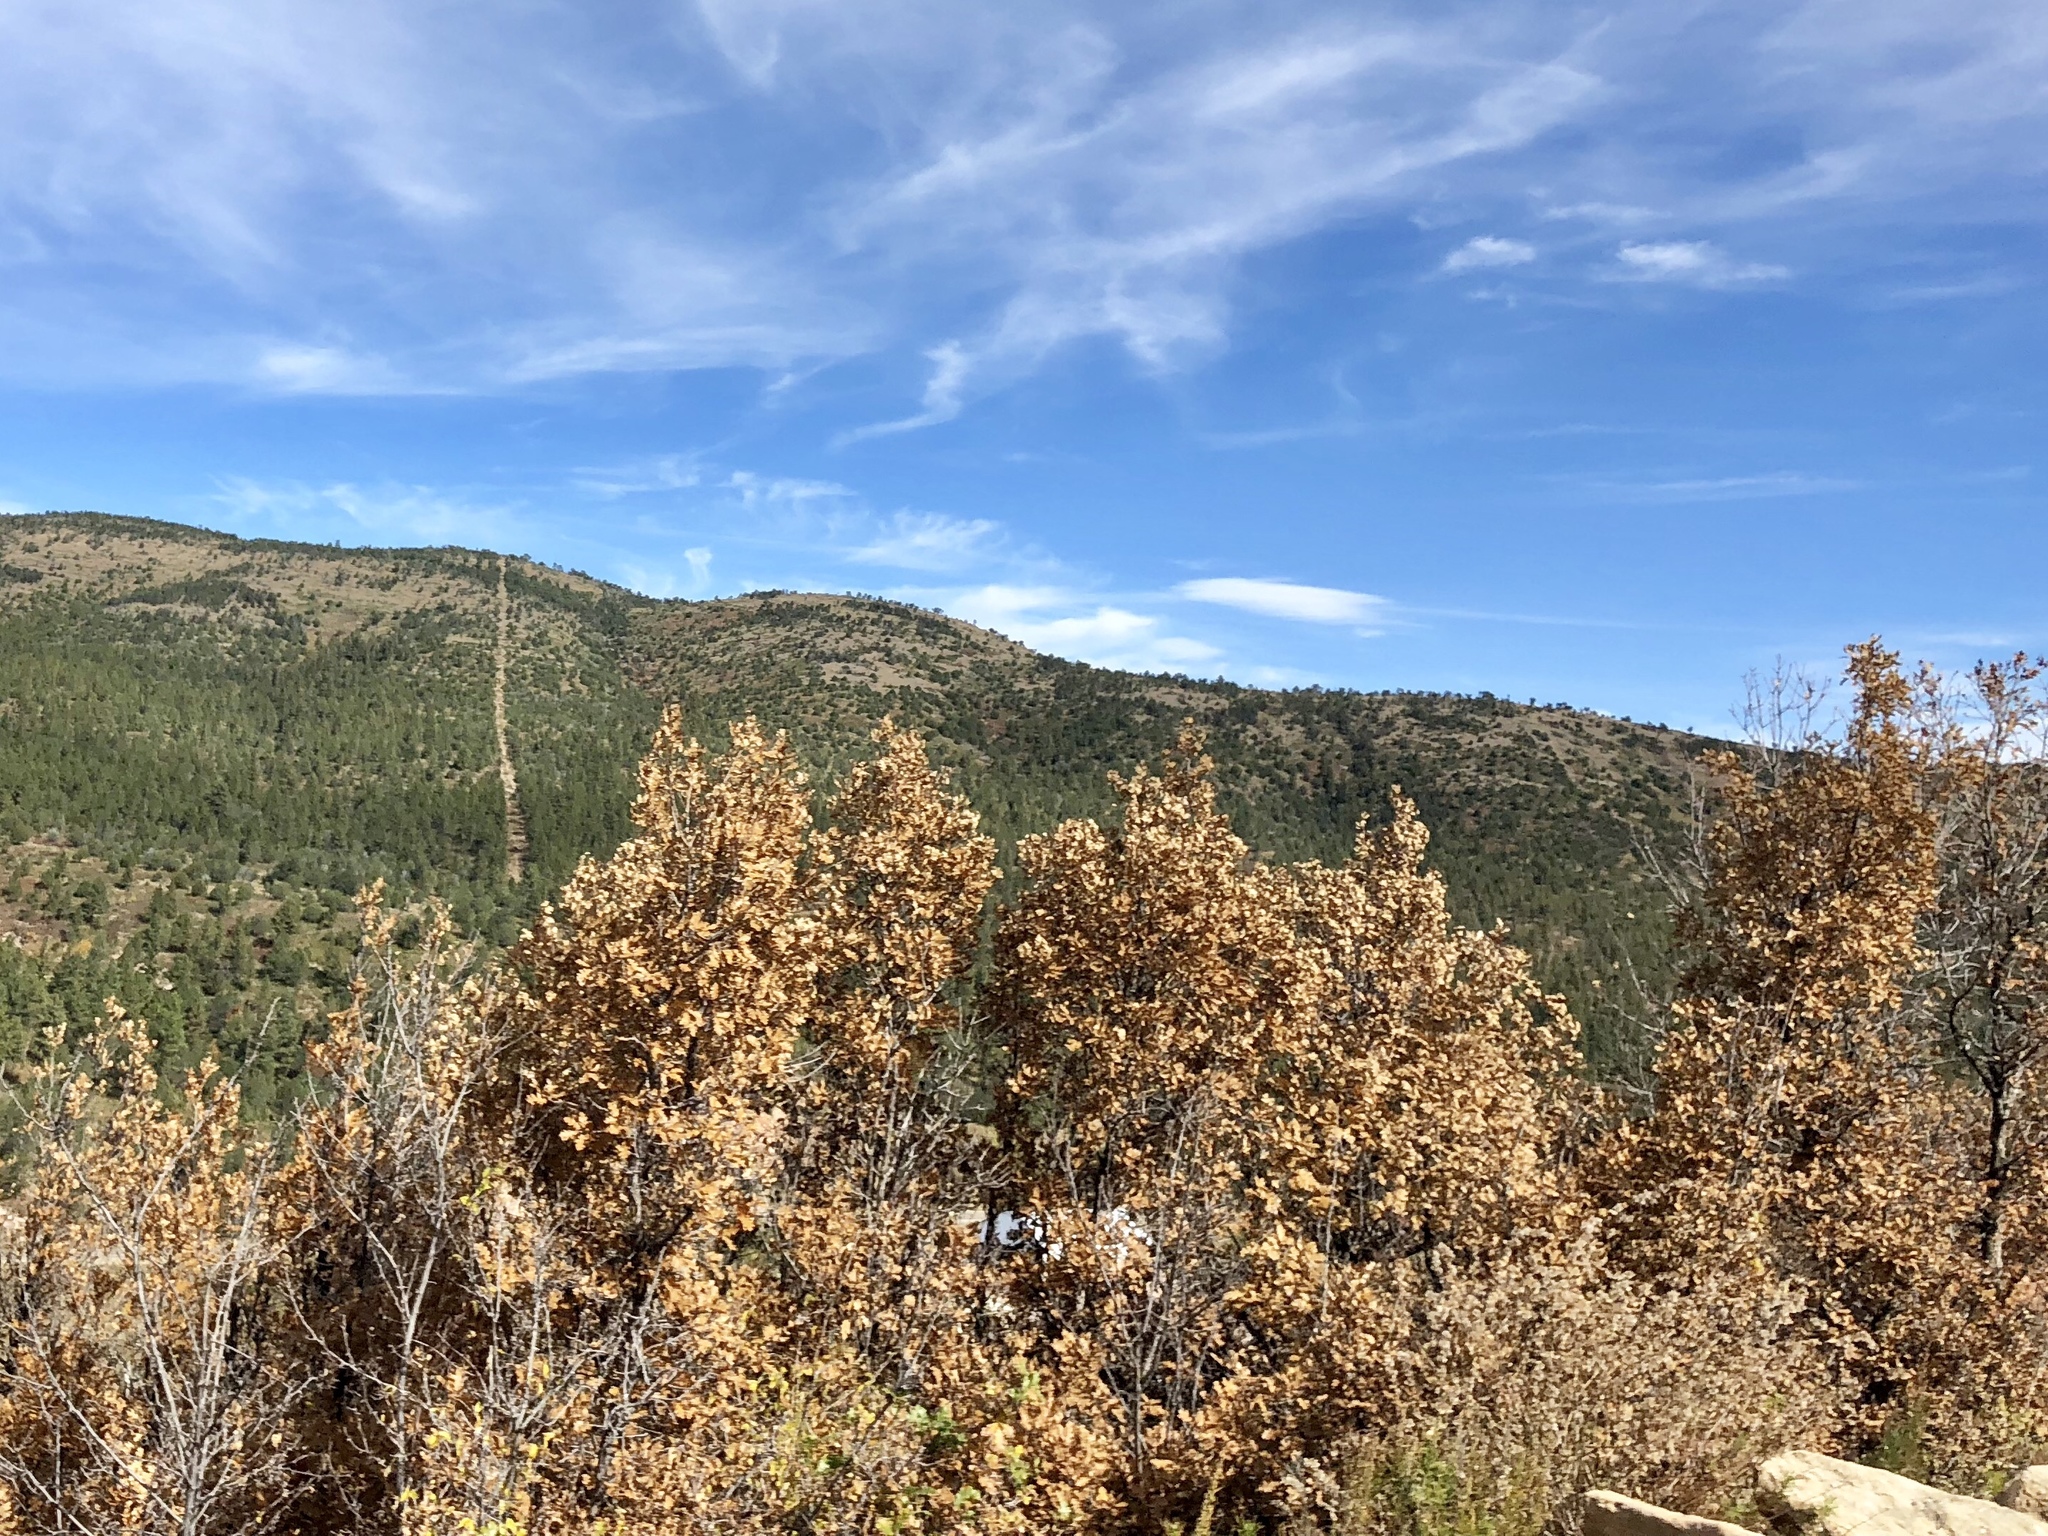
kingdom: Plantae
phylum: Tracheophyta
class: Magnoliopsida
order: Fagales
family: Fagaceae
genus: Quercus
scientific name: Quercus gambelii
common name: Gambel oak
